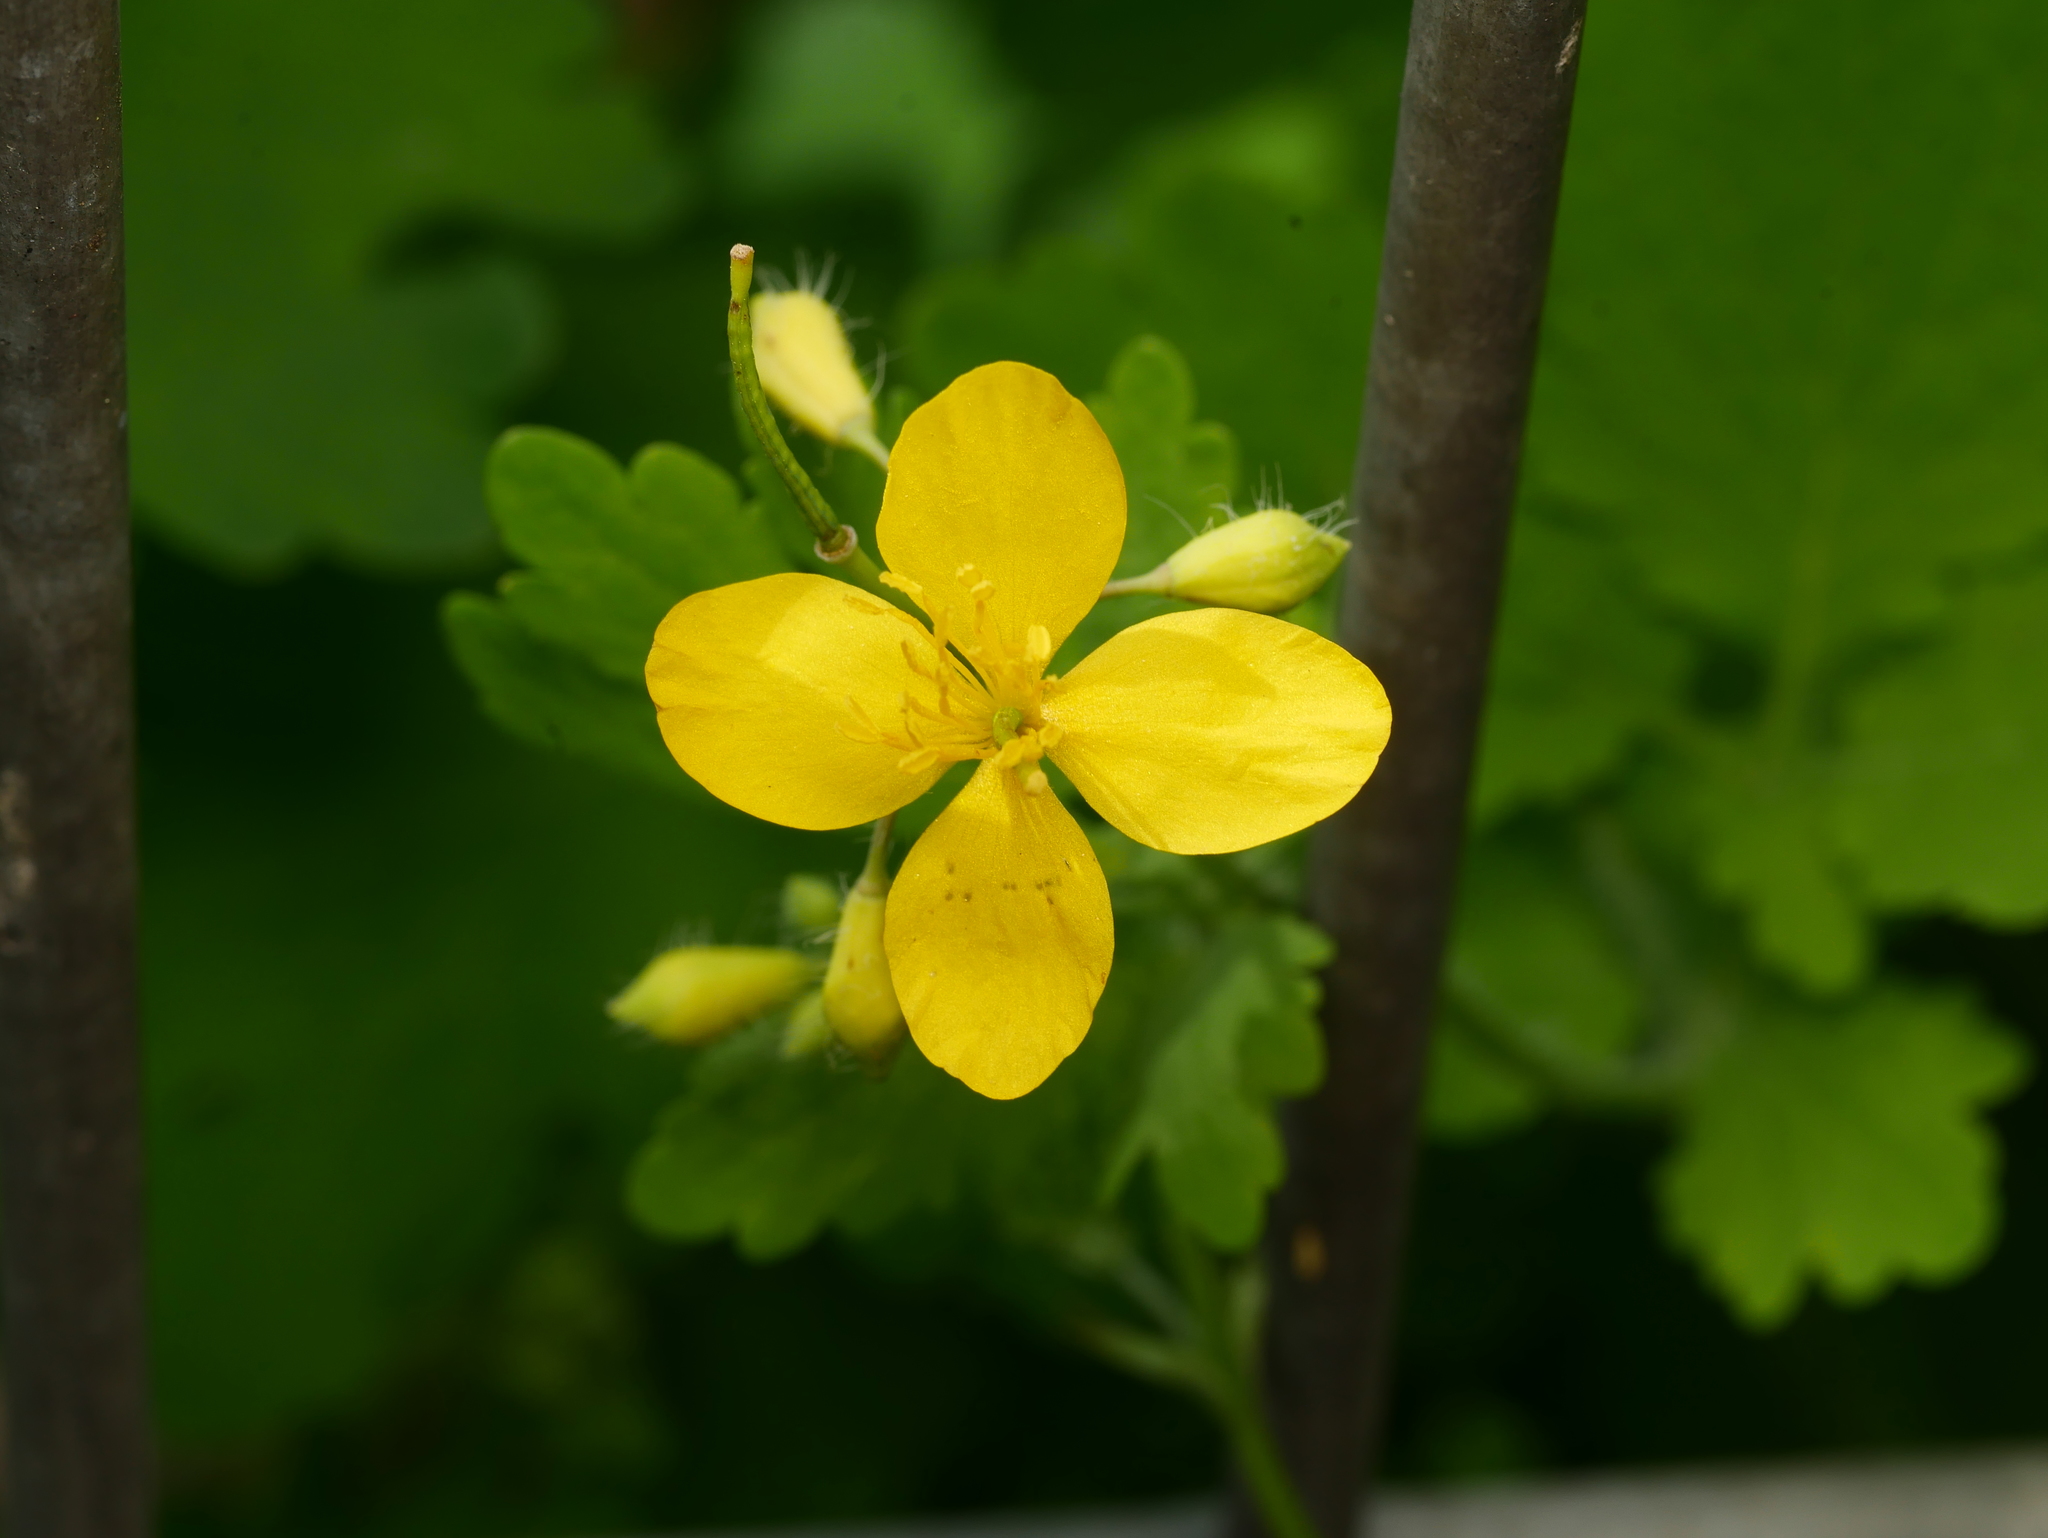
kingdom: Plantae
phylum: Tracheophyta
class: Magnoliopsida
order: Ranunculales
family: Papaveraceae
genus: Chelidonium
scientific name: Chelidonium majus
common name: Greater celandine
